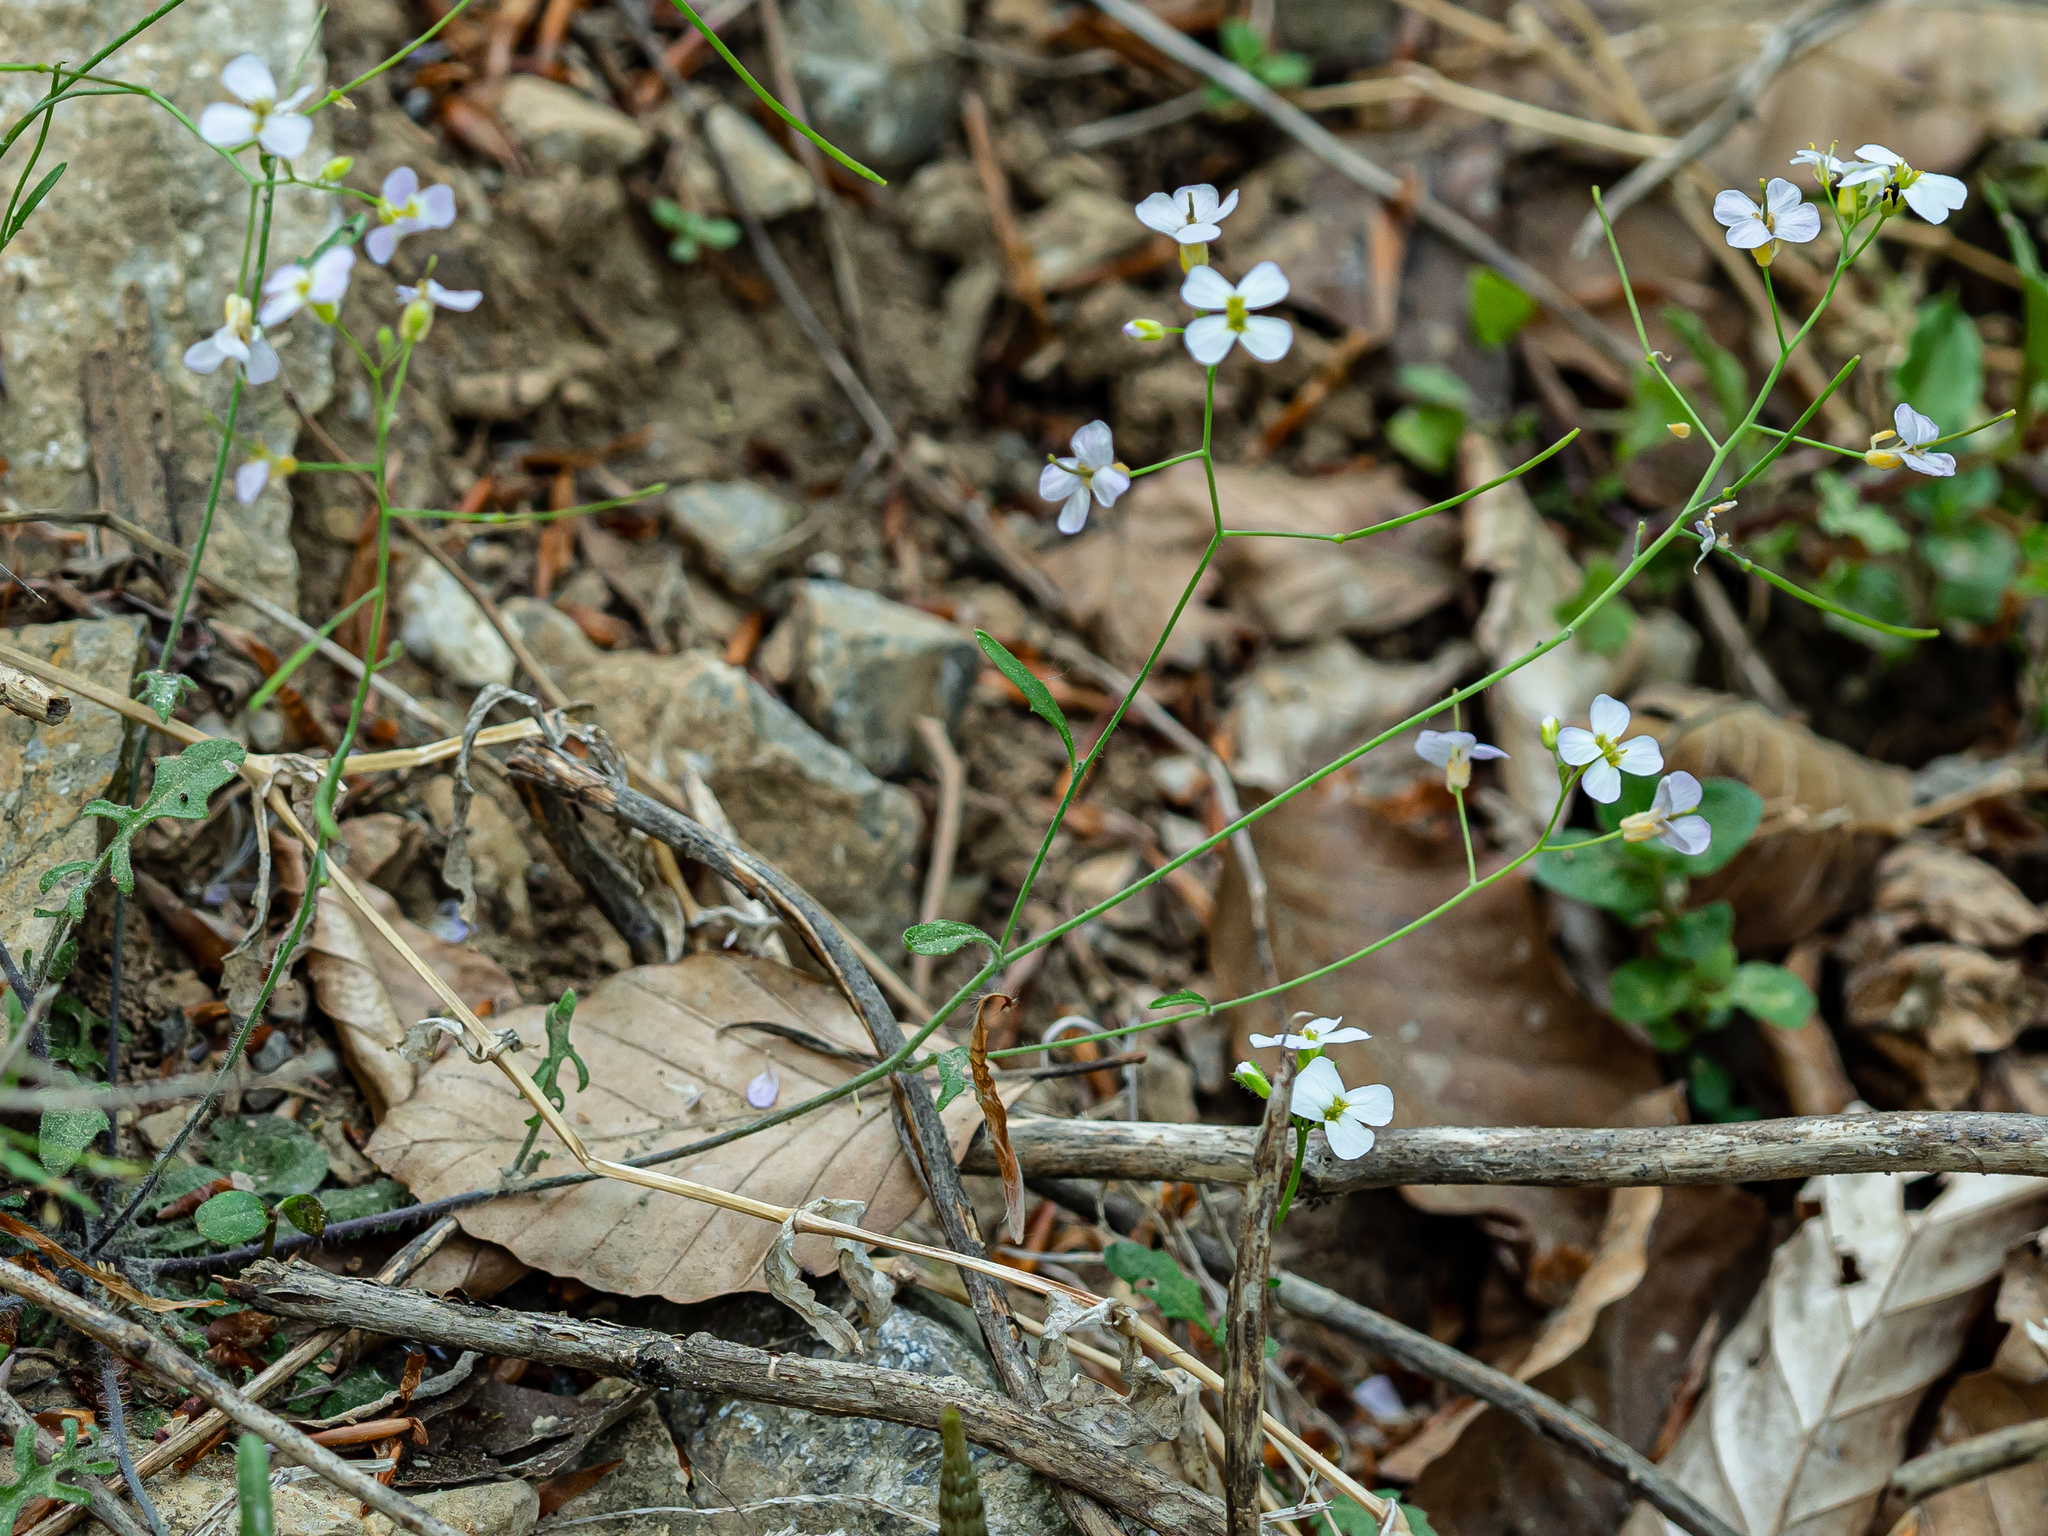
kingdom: Plantae
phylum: Tracheophyta
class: Magnoliopsida
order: Brassicales
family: Brassicaceae
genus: Arabidopsis
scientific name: Arabidopsis arenosa
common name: Sand rock-cress
